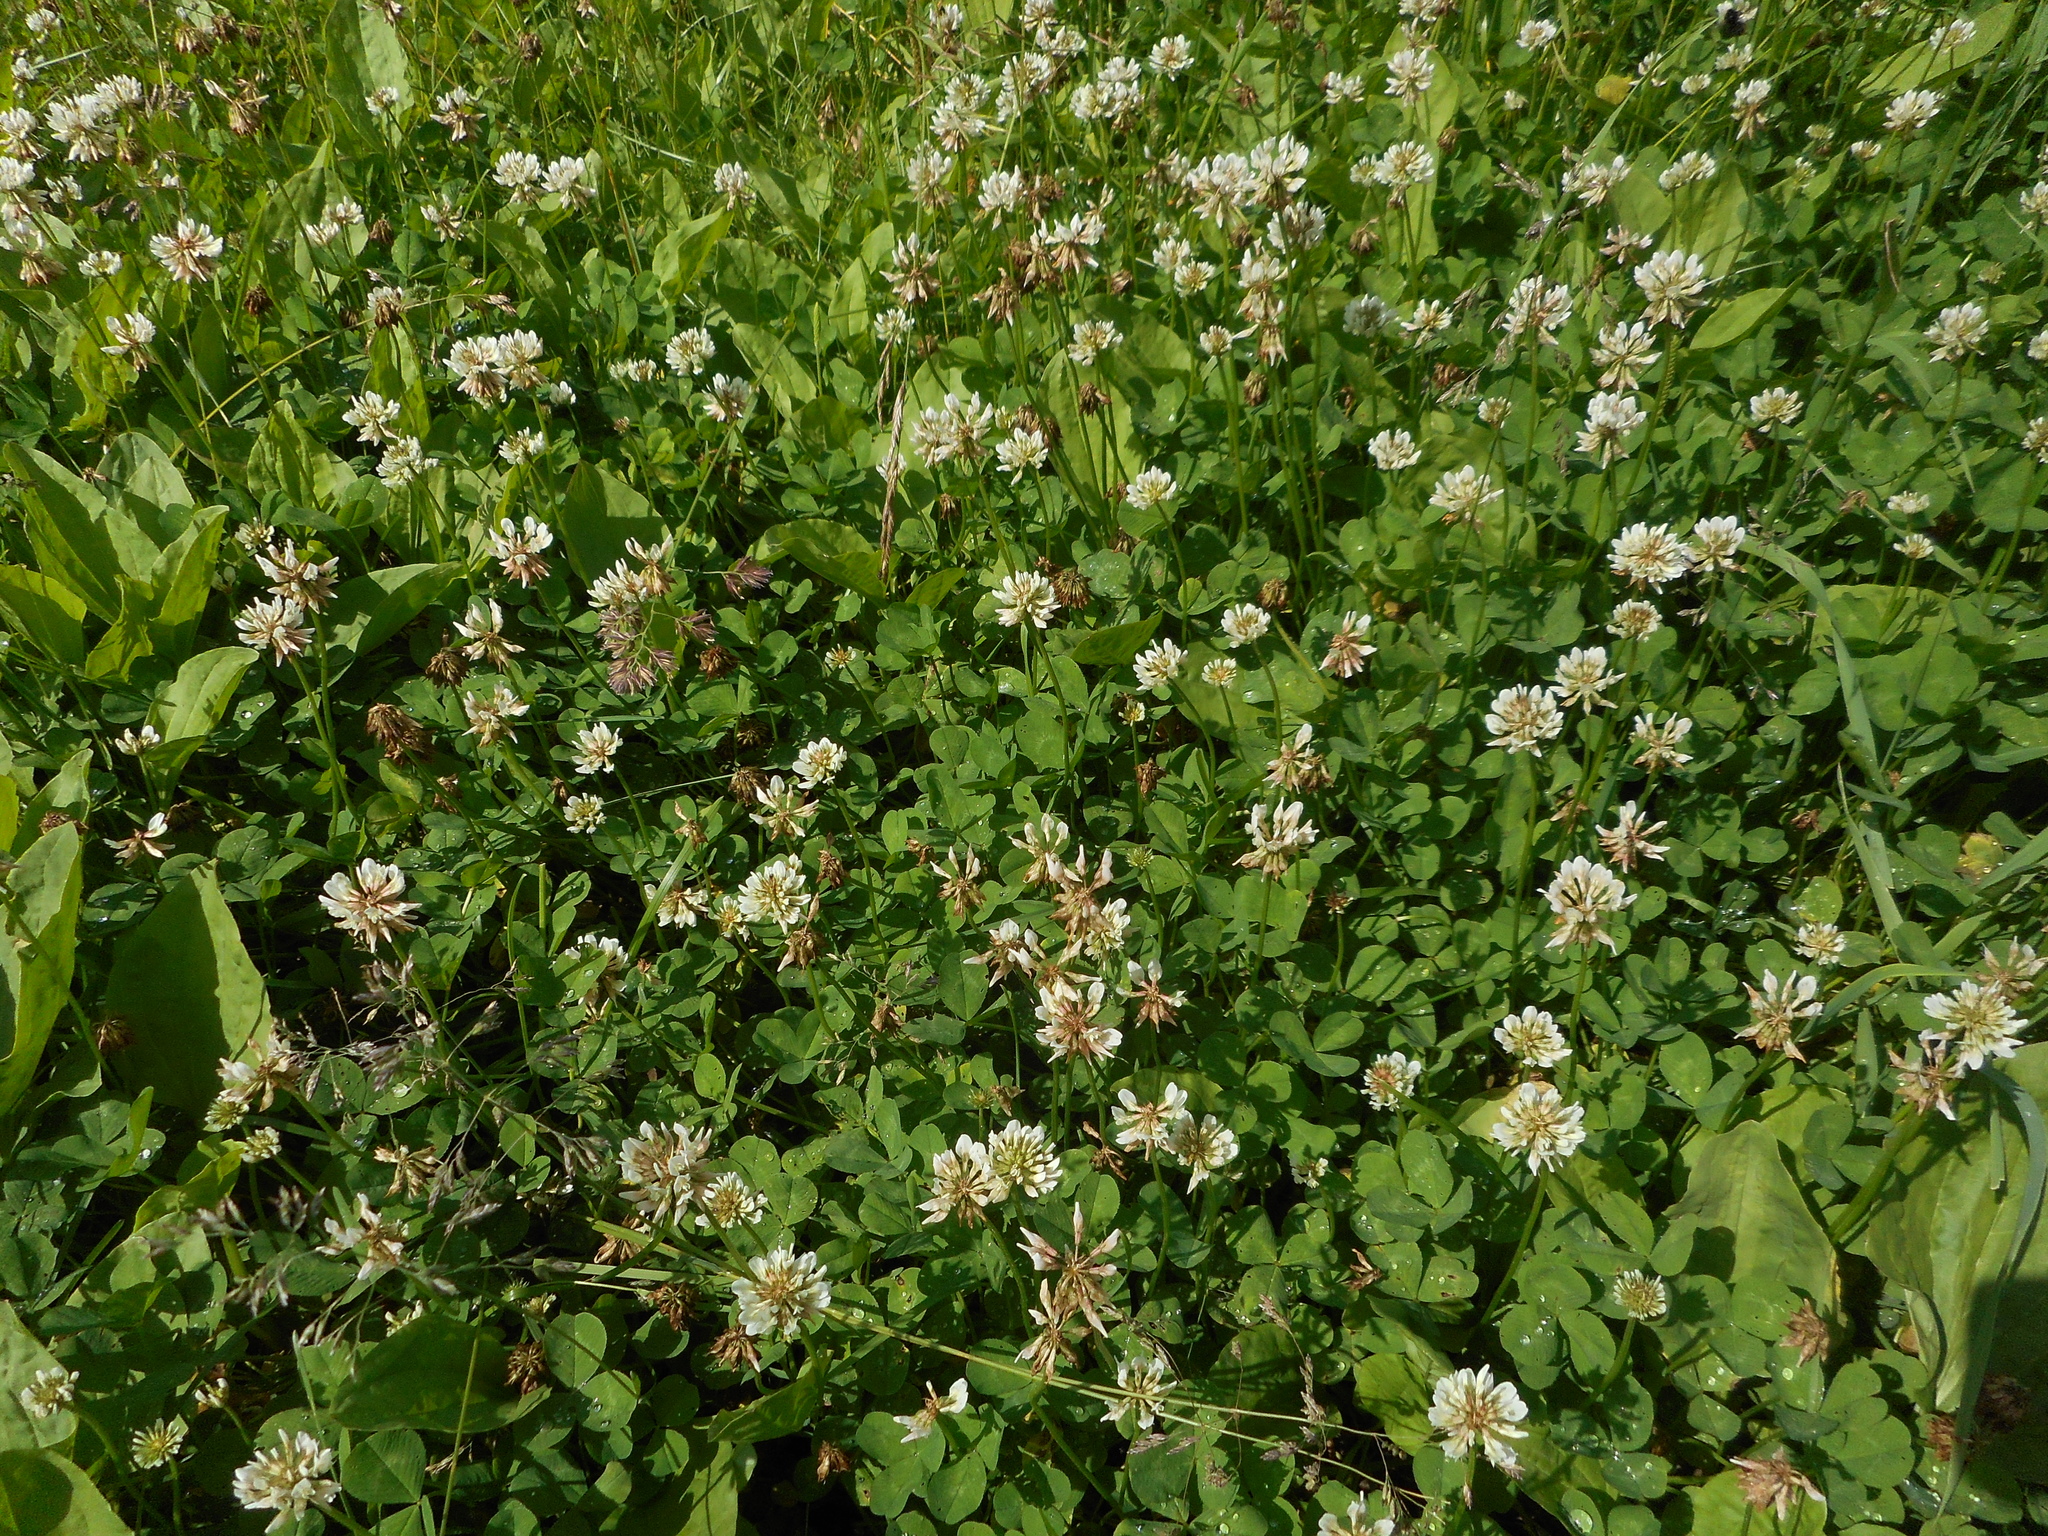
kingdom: Plantae
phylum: Tracheophyta
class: Magnoliopsida
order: Fabales
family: Fabaceae
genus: Trifolium
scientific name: Trifolium repens
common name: White clover
